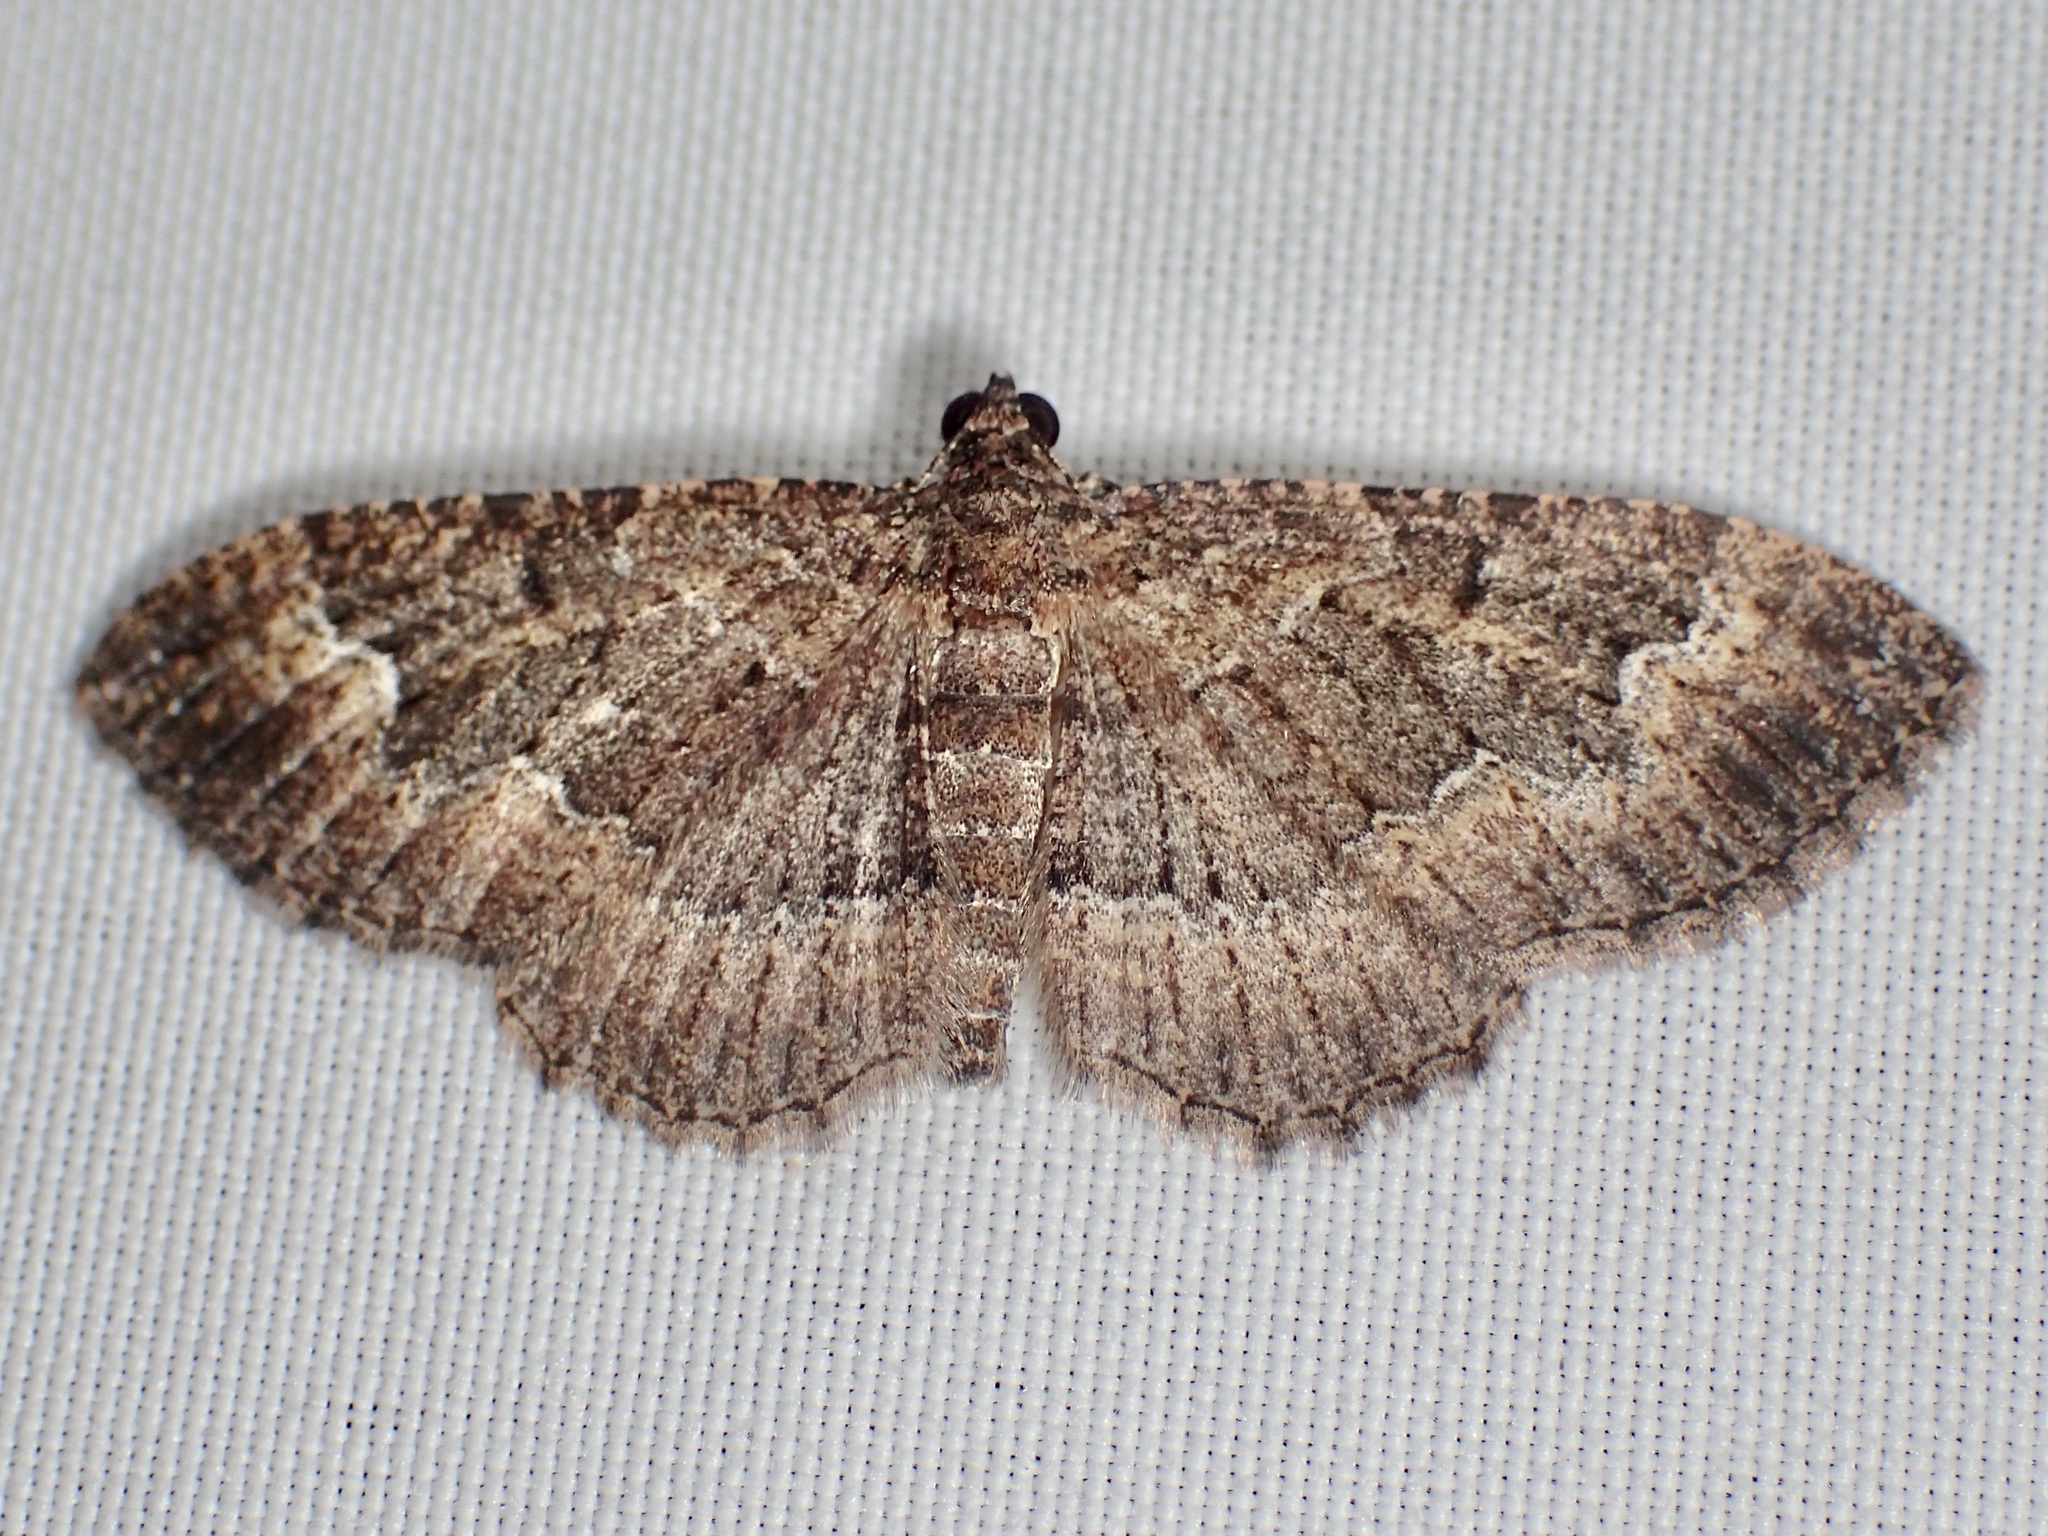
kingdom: Animalia
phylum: Arthropoda
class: Insecta
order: Lepidoptera
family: Geometridae
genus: Disclisioprocta
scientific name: Disclisioprocta stellata
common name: Somber carpet
